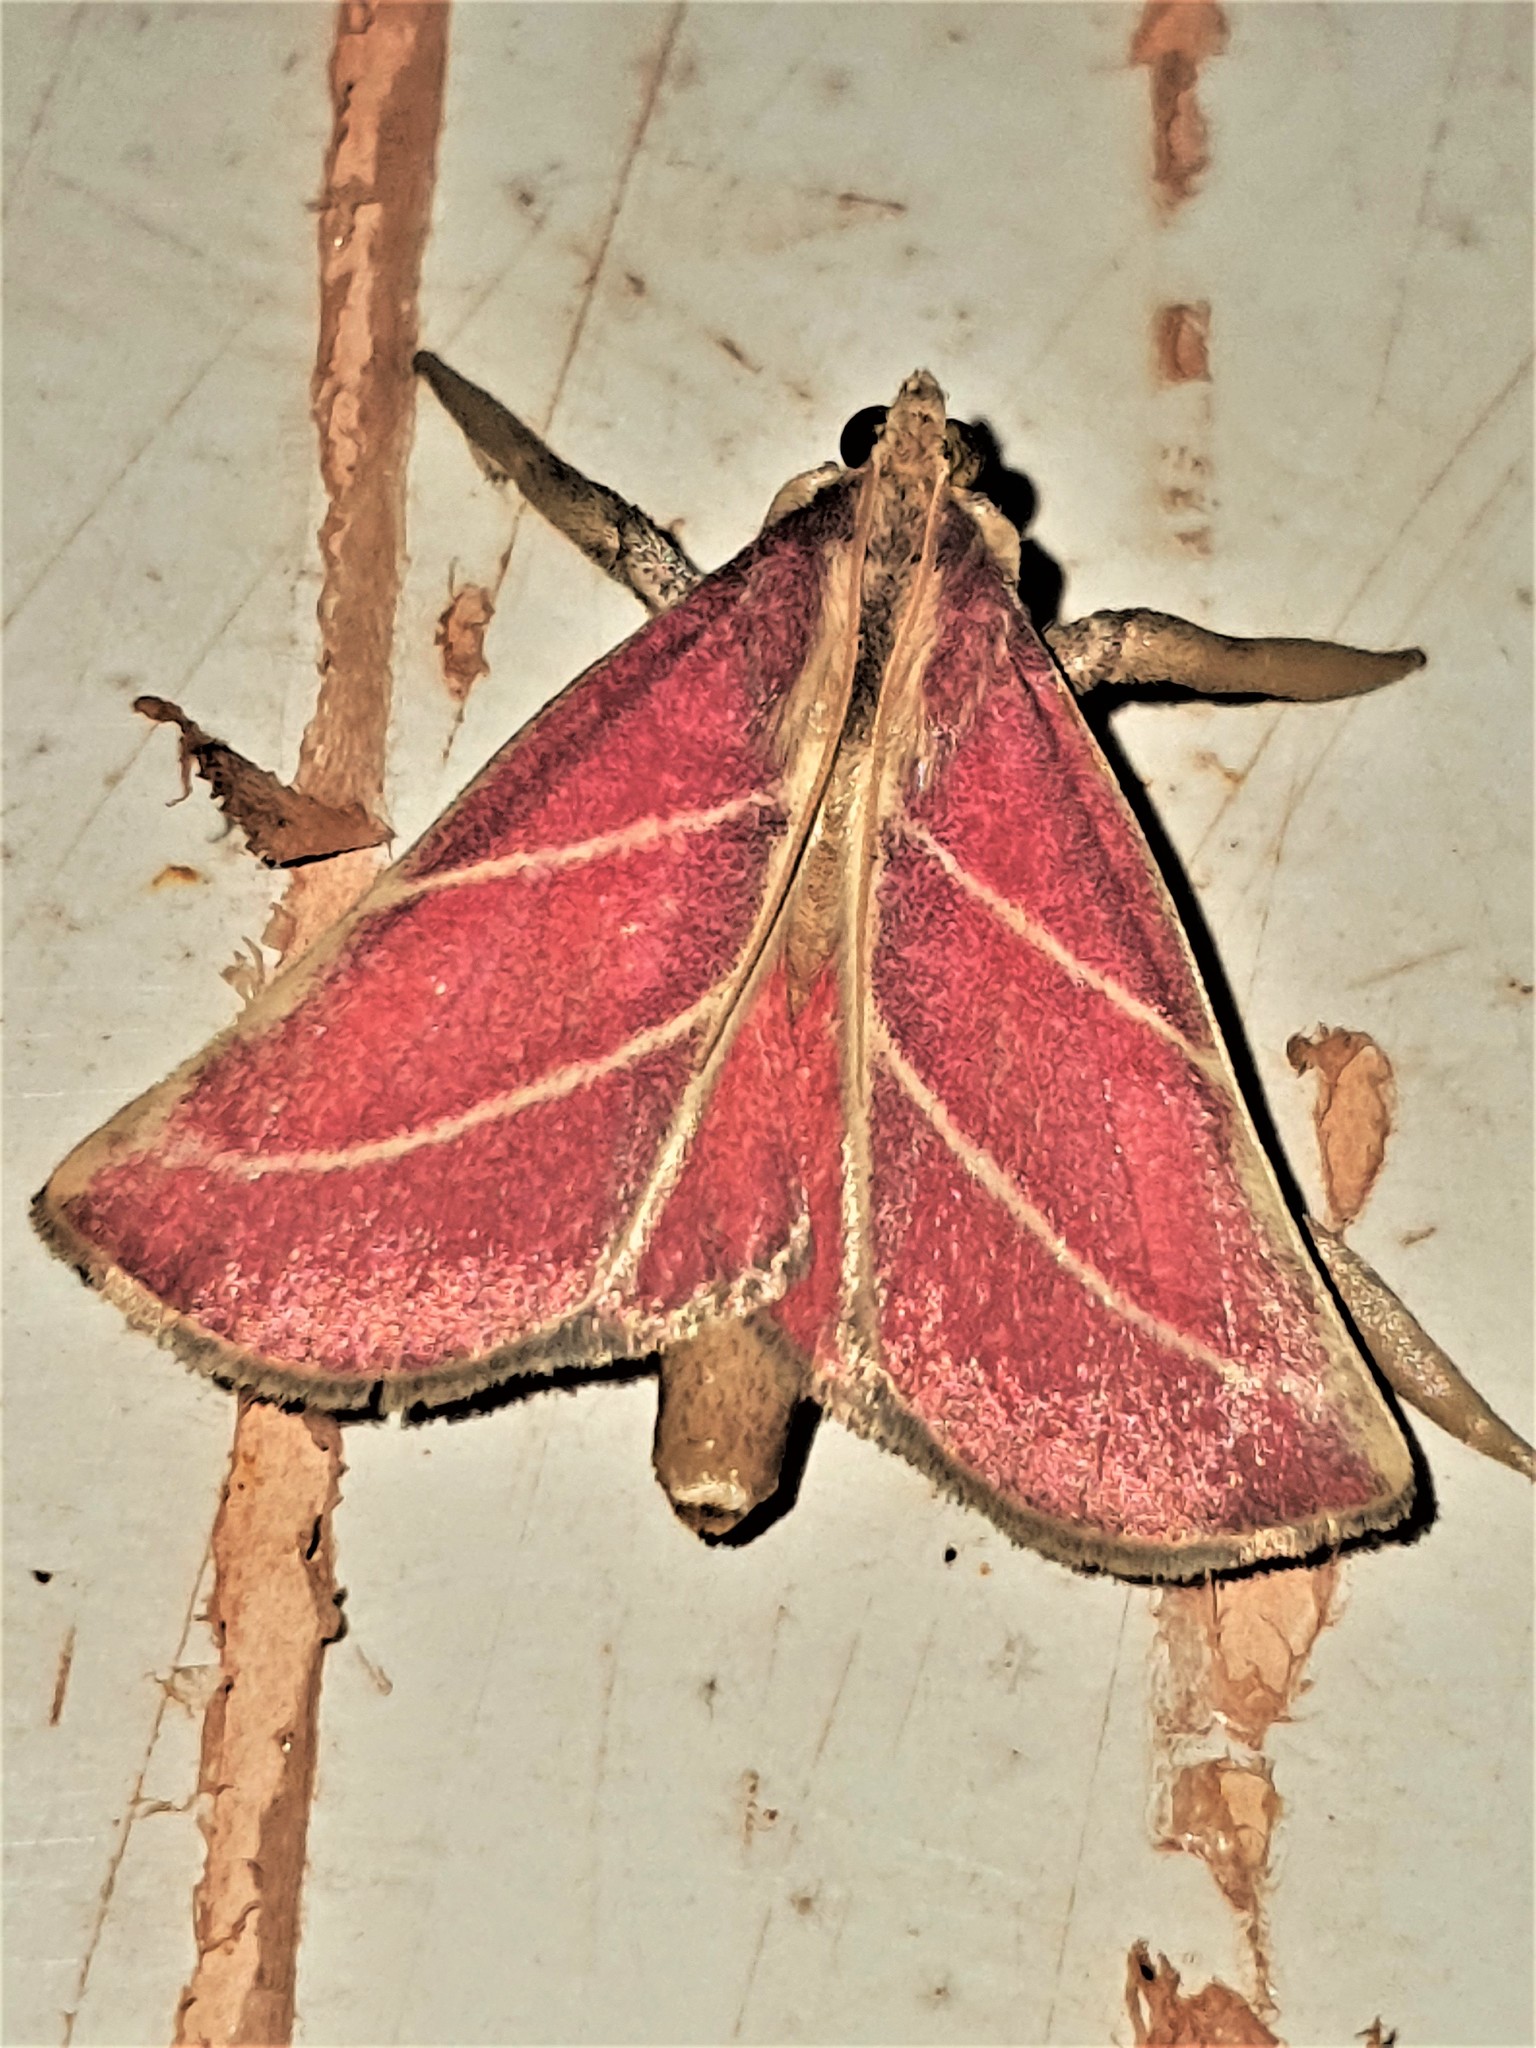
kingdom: Animalia
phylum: Arthropoda
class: Insecta
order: Lepidoptera
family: Pyralidae
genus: Pachypodistes
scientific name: Pachypodistes goeldii
